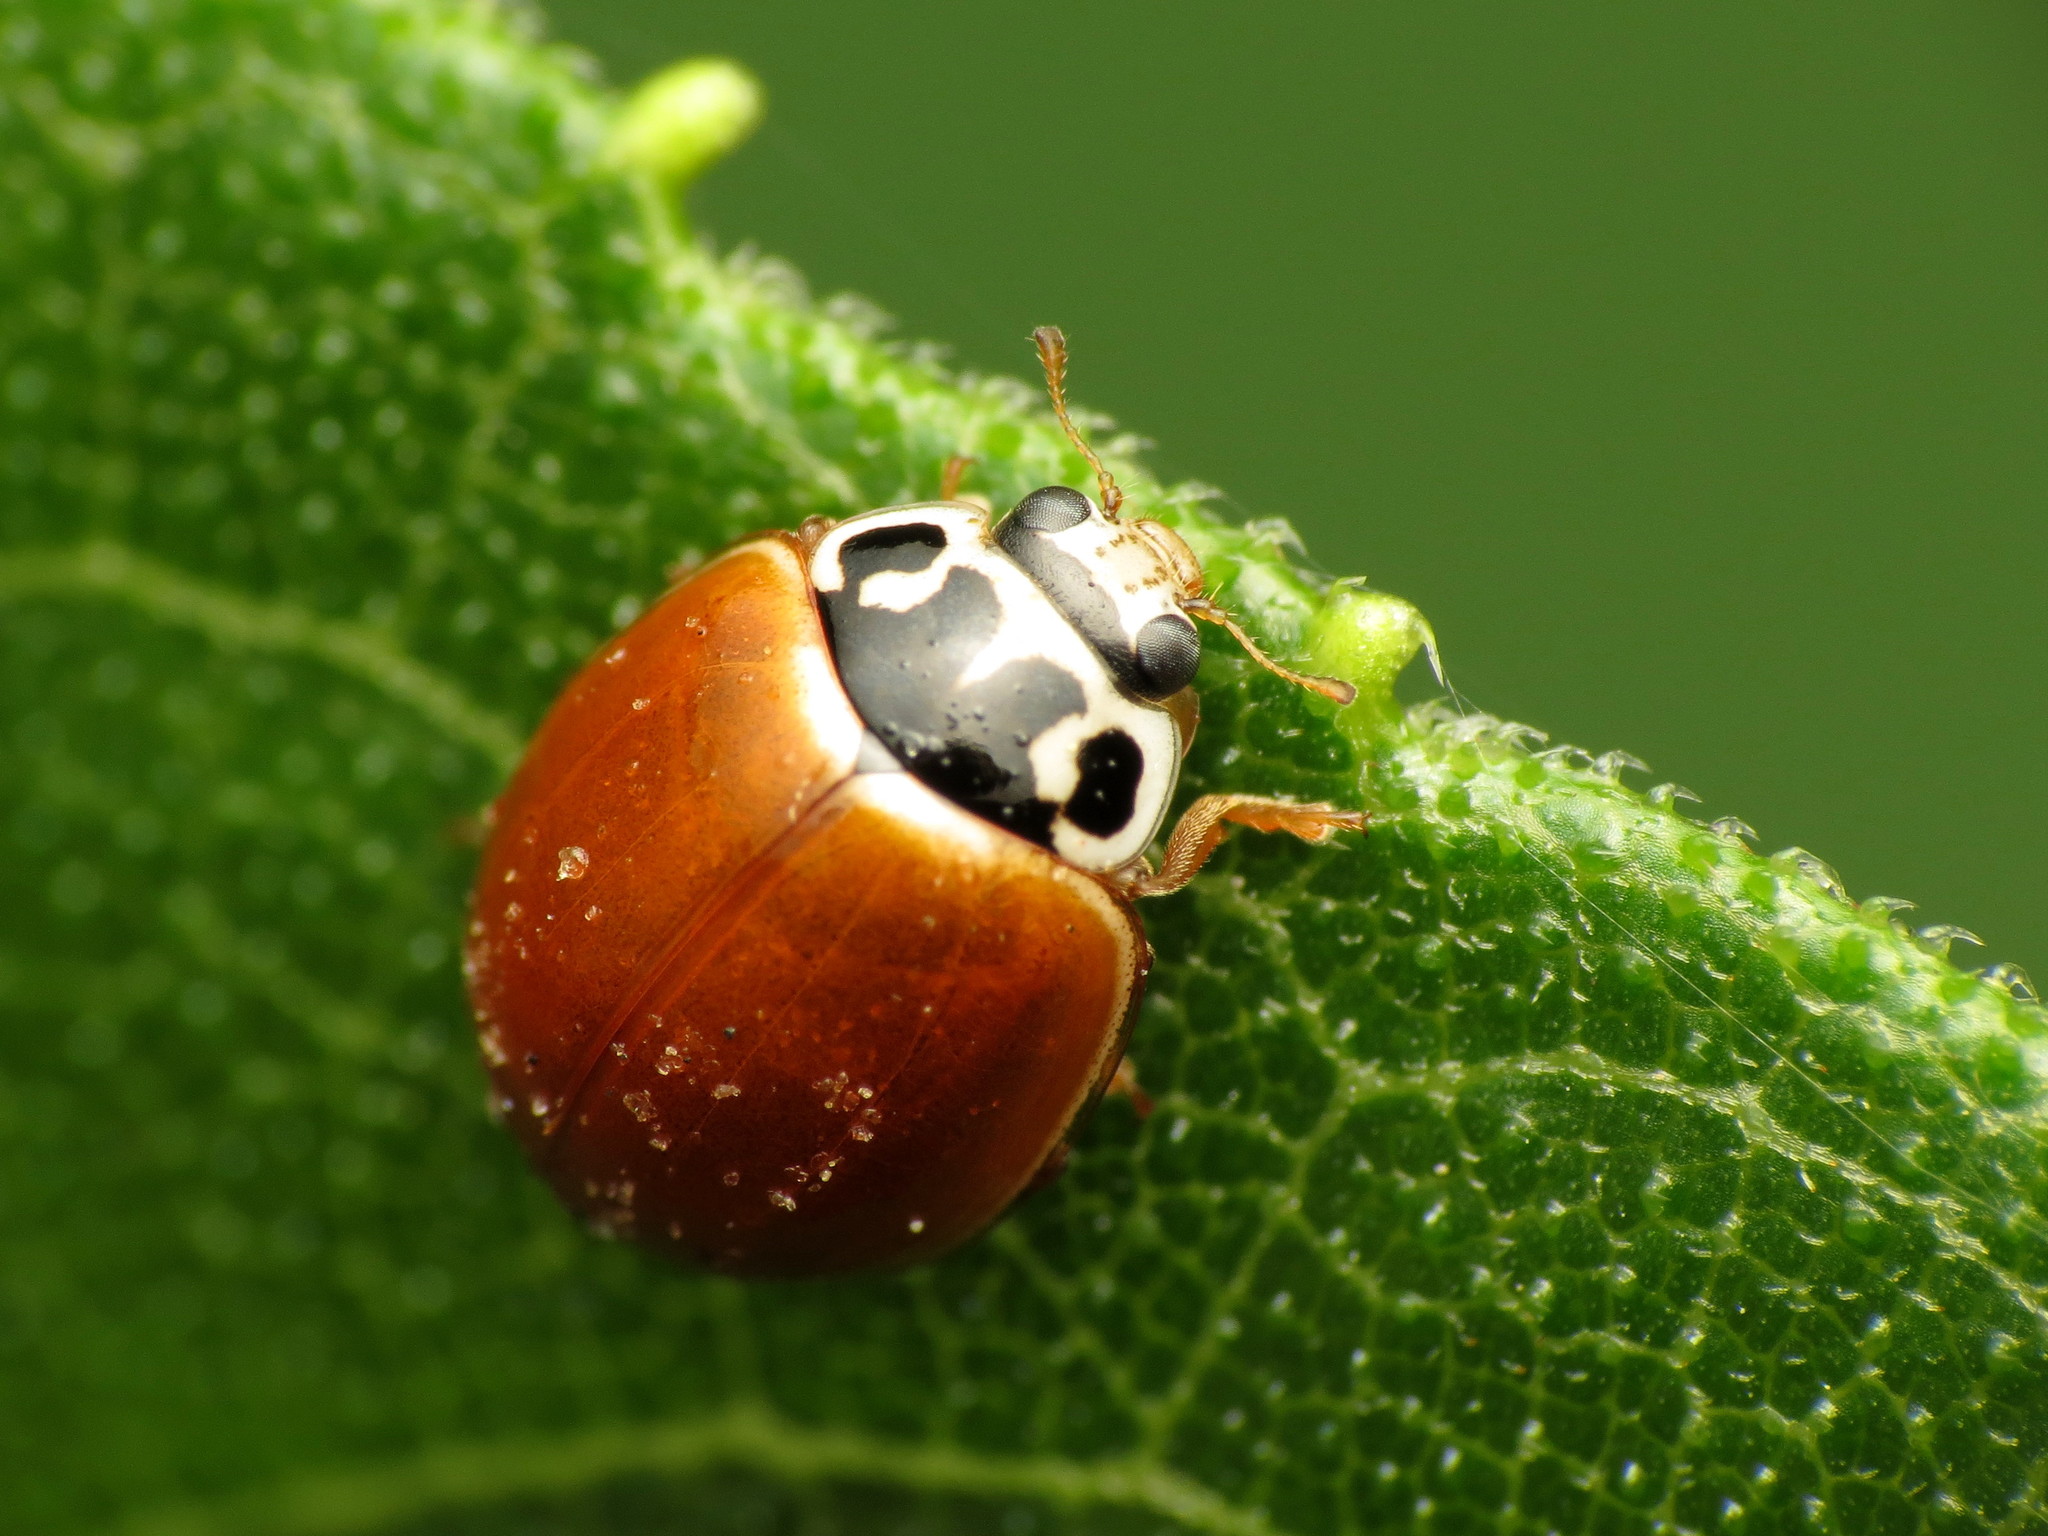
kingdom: Animalia
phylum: Arthropoda
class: Insecta
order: Coleoptera
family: Coccinellidae
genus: Cycloneda
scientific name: Cycloneda munda
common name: Polished lady beetle
